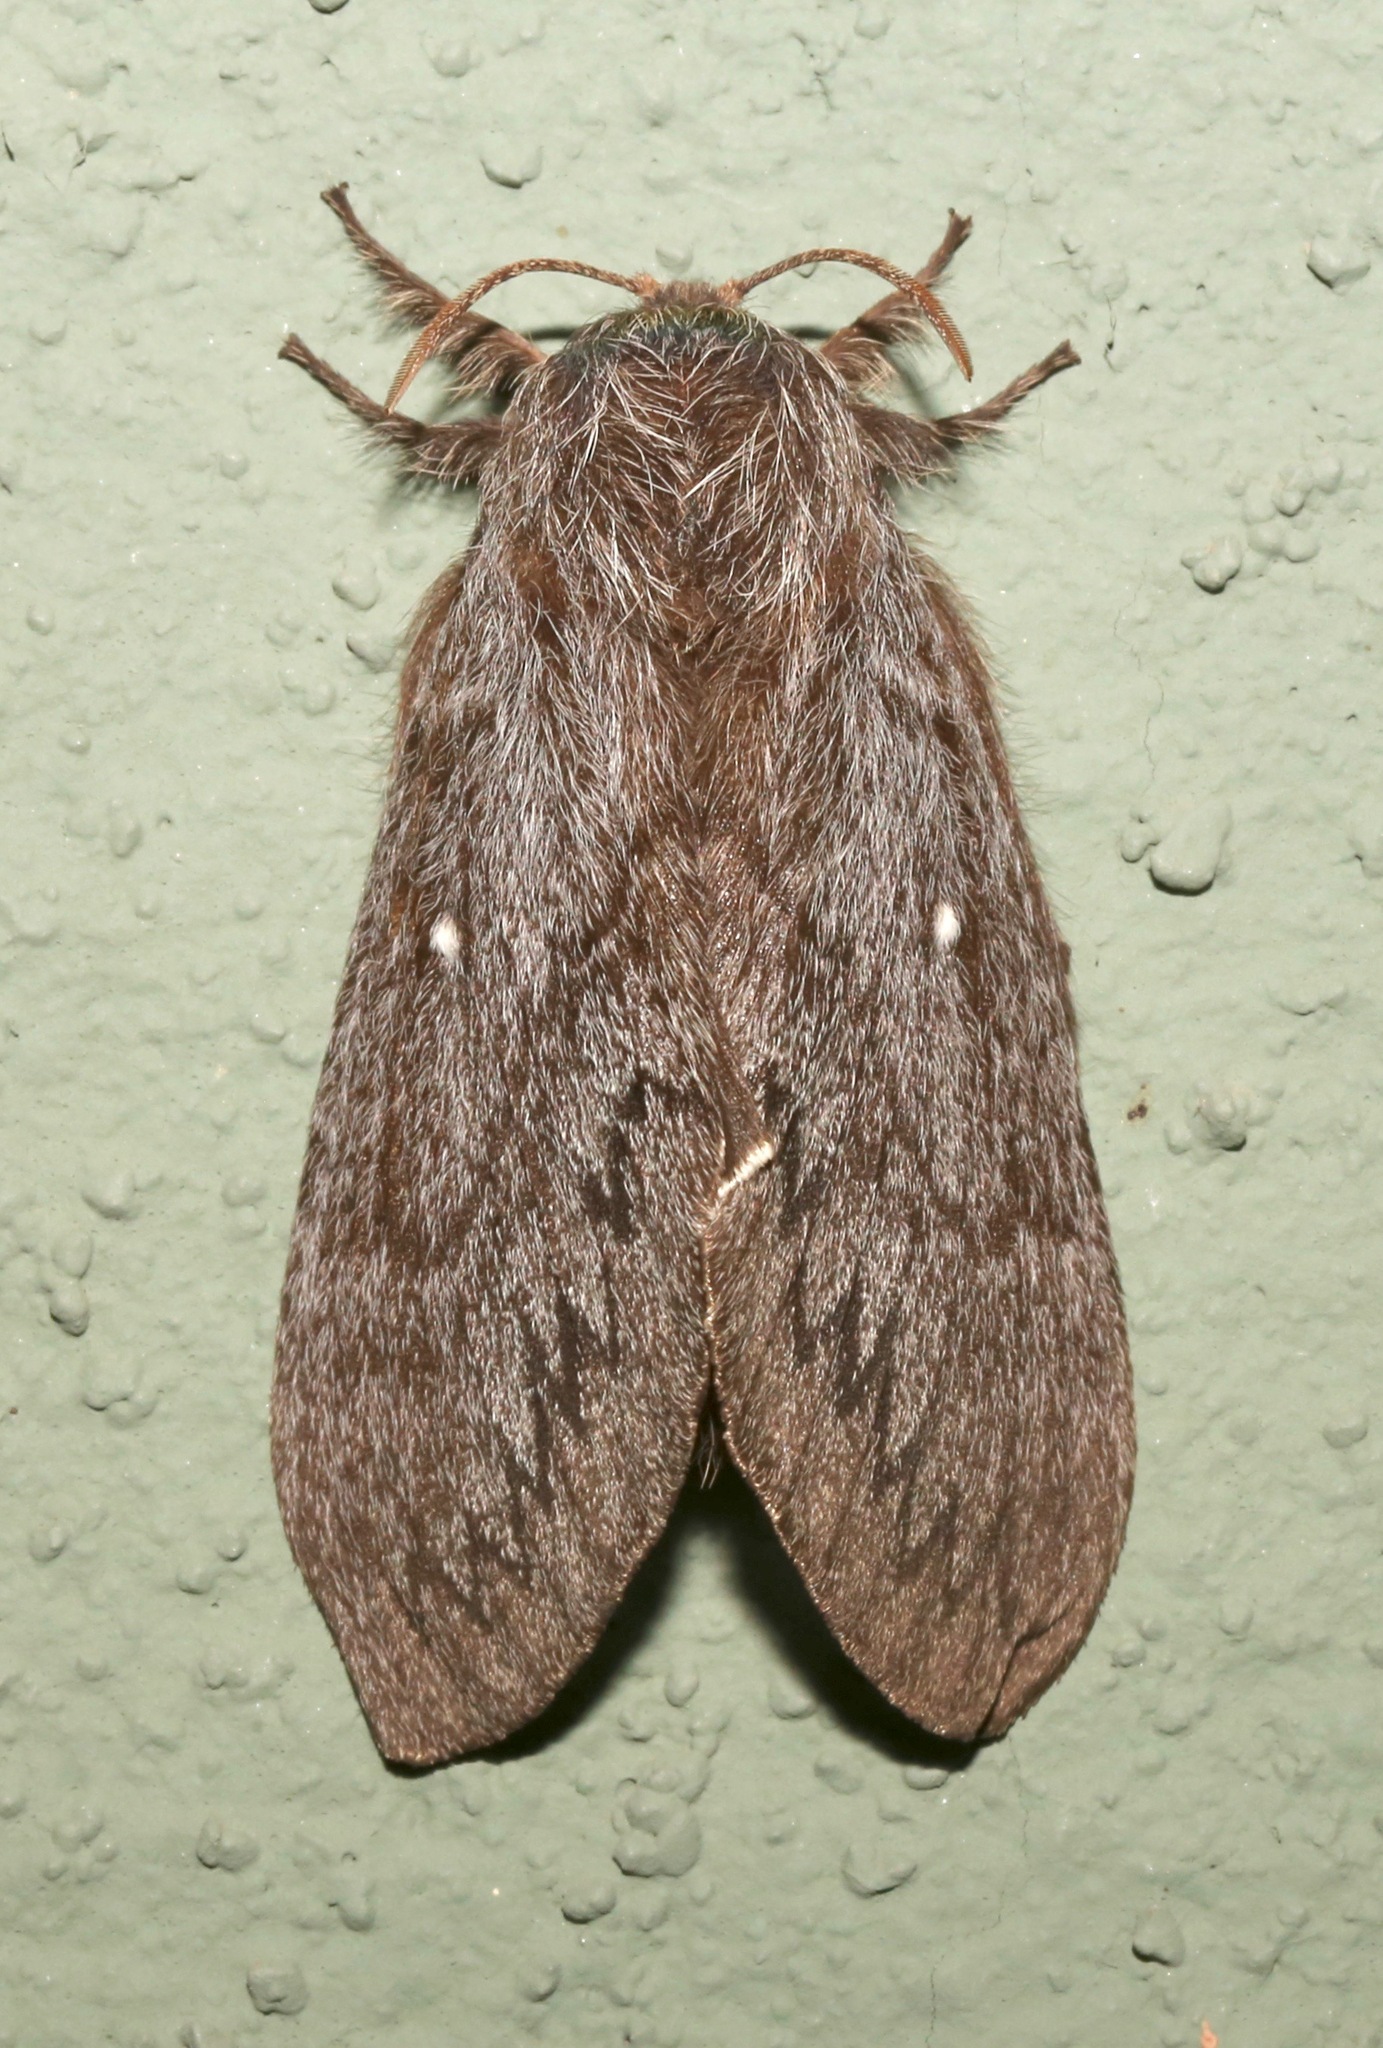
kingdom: Animalia
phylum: Arthropoda
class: Insecta
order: Lepidoptera
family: Lasiocampidae
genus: Gloveria
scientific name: Gloveria arizonensis
